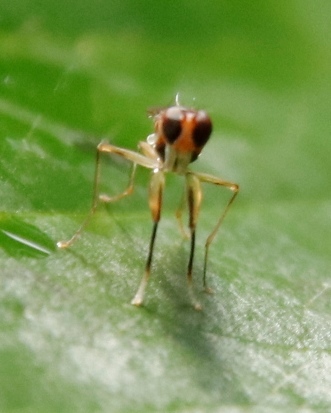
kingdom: Animalia
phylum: Arthropoda
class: Insecta
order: Diptera
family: Diopsidae
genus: Teloglabrus
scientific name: Teloglabrus vumbensis
